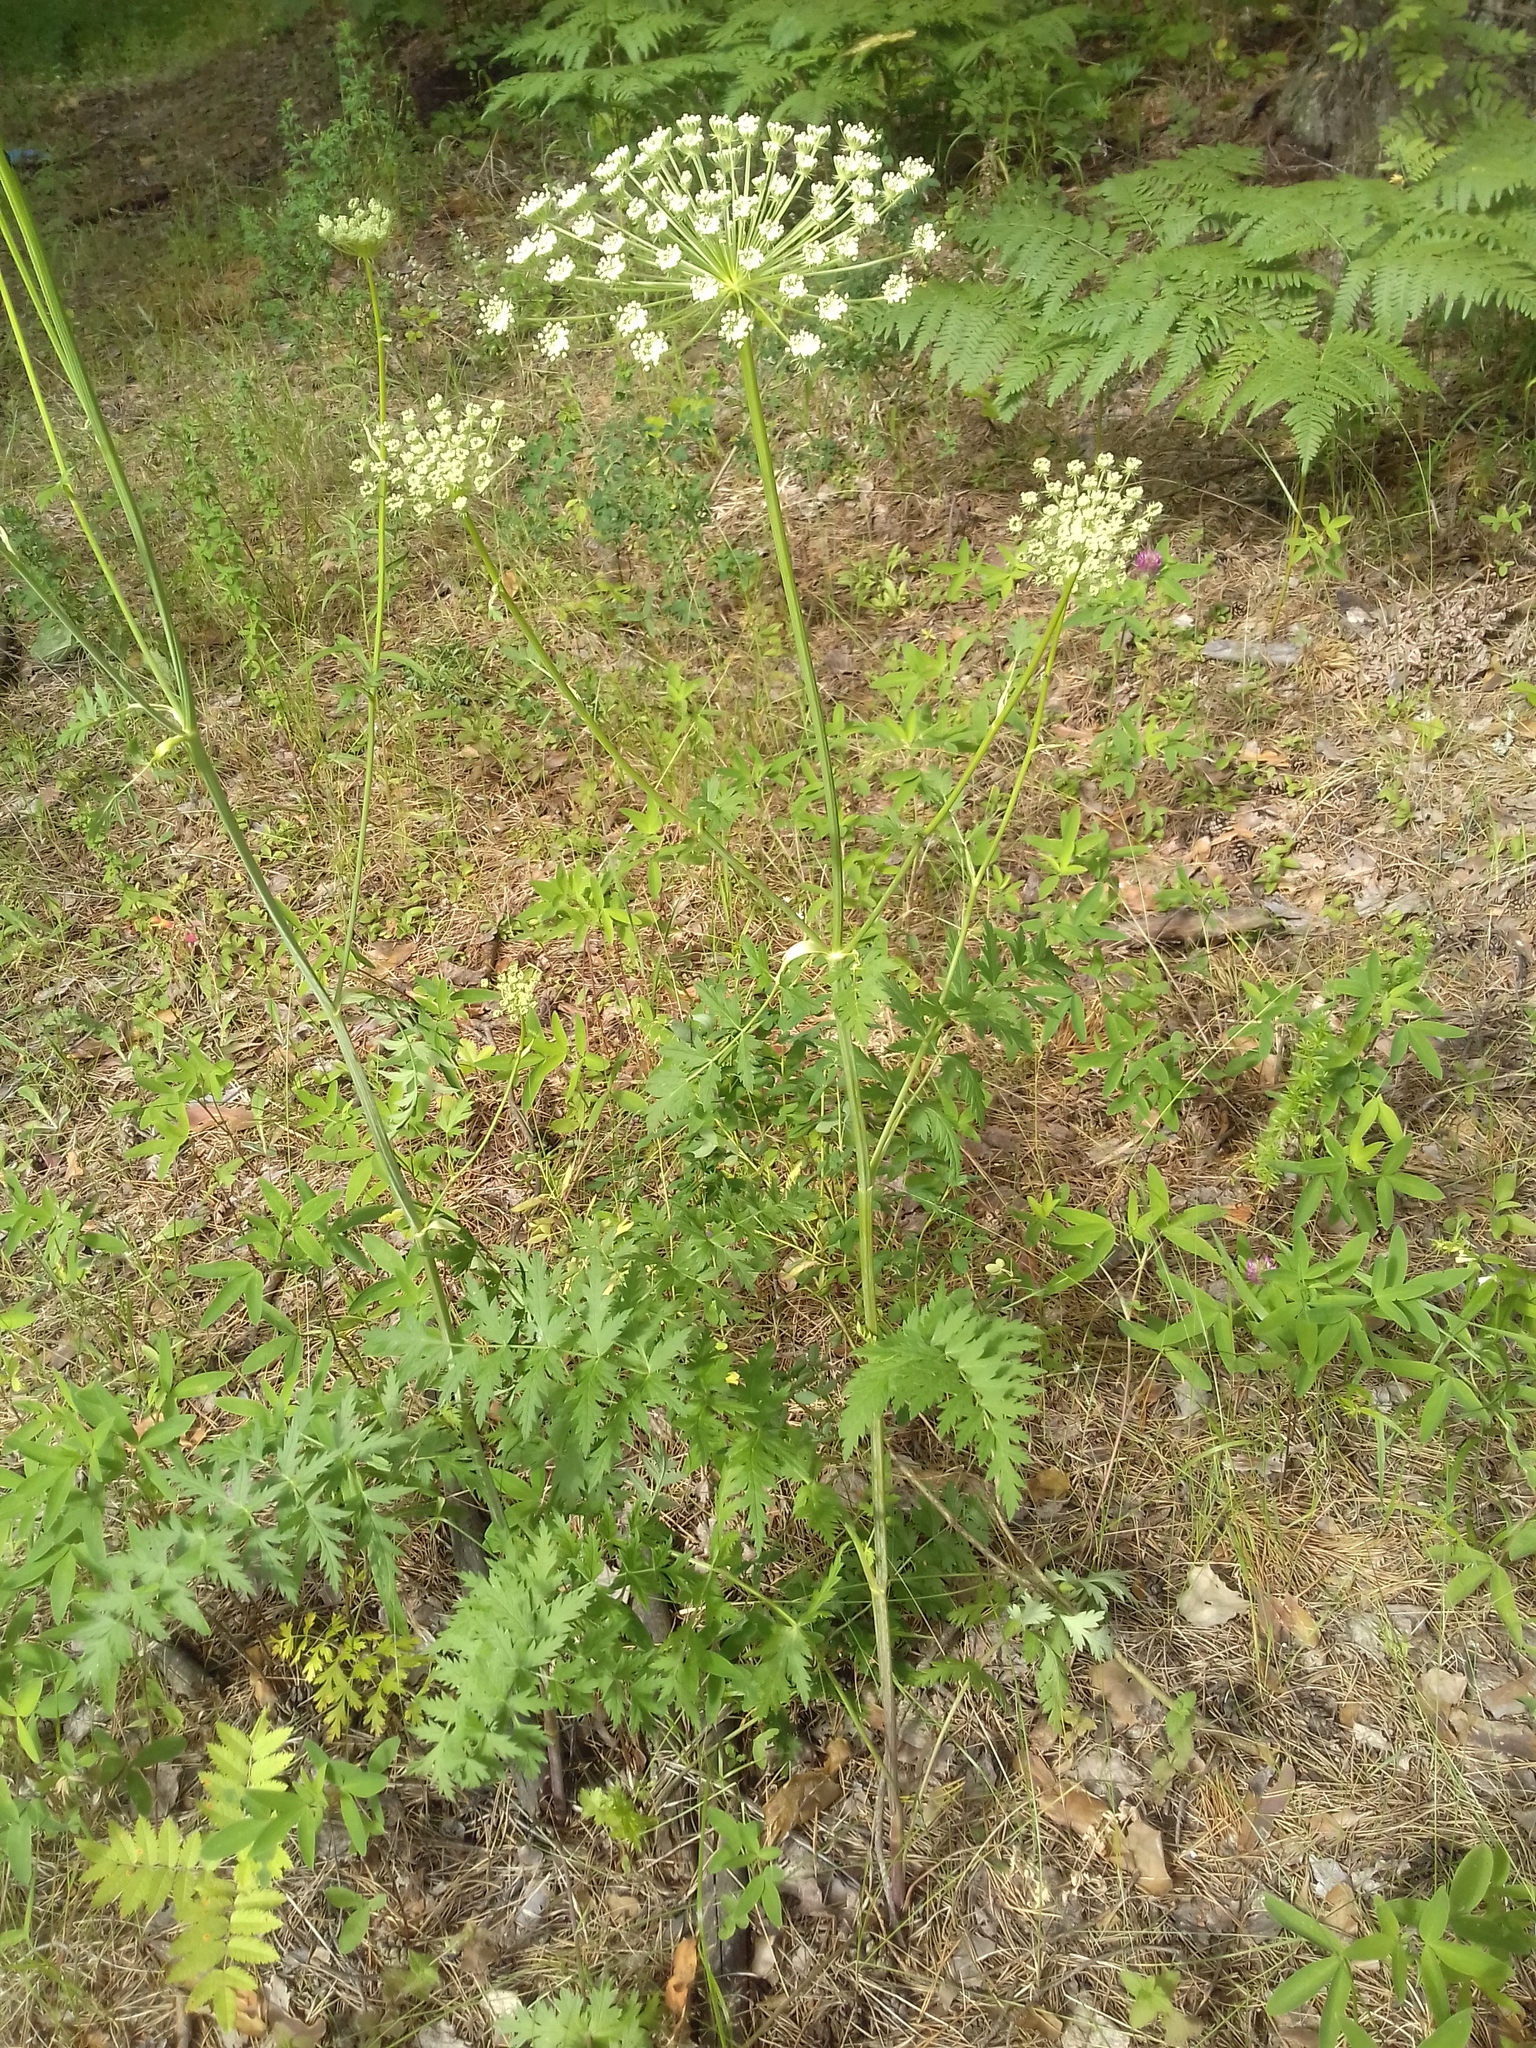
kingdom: Plantae
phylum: Tracheophyta
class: Magnoliopsida
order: Apiales
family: Apiaceae
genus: Seseli
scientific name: Seseli libanotis
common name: Mooncarrot
